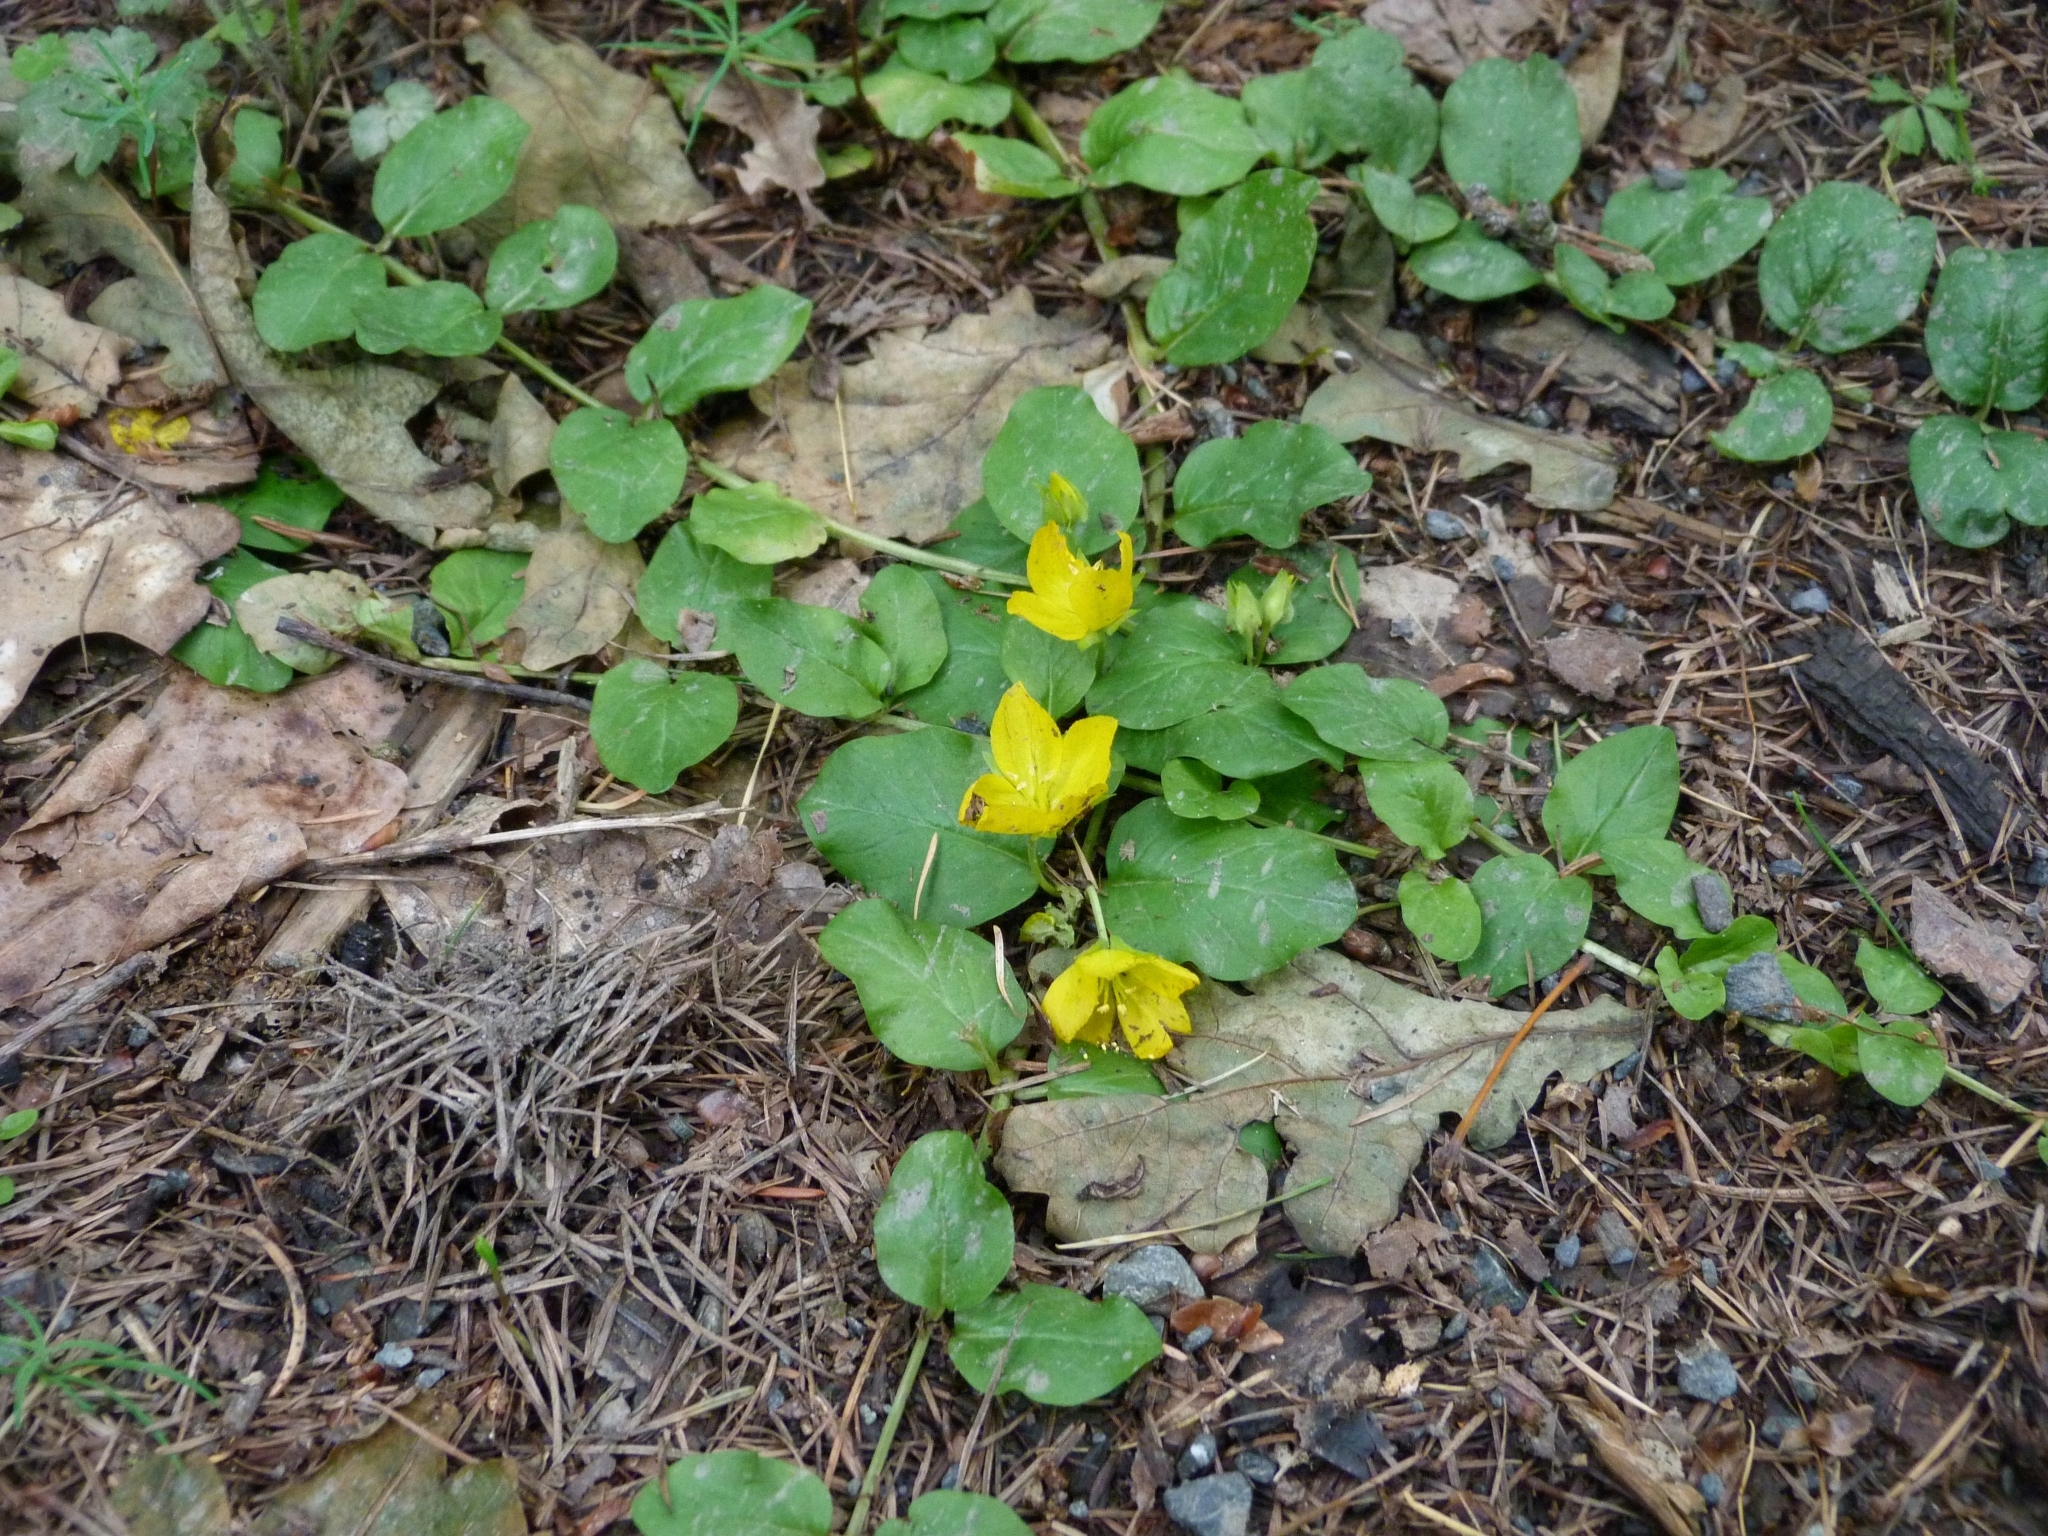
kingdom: Plantae
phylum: Tracheophyta
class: Magnoliopsida
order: Ericales
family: Primulaceae
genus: Lysimachia
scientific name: Lysimachia nummularia
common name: Moneywort
